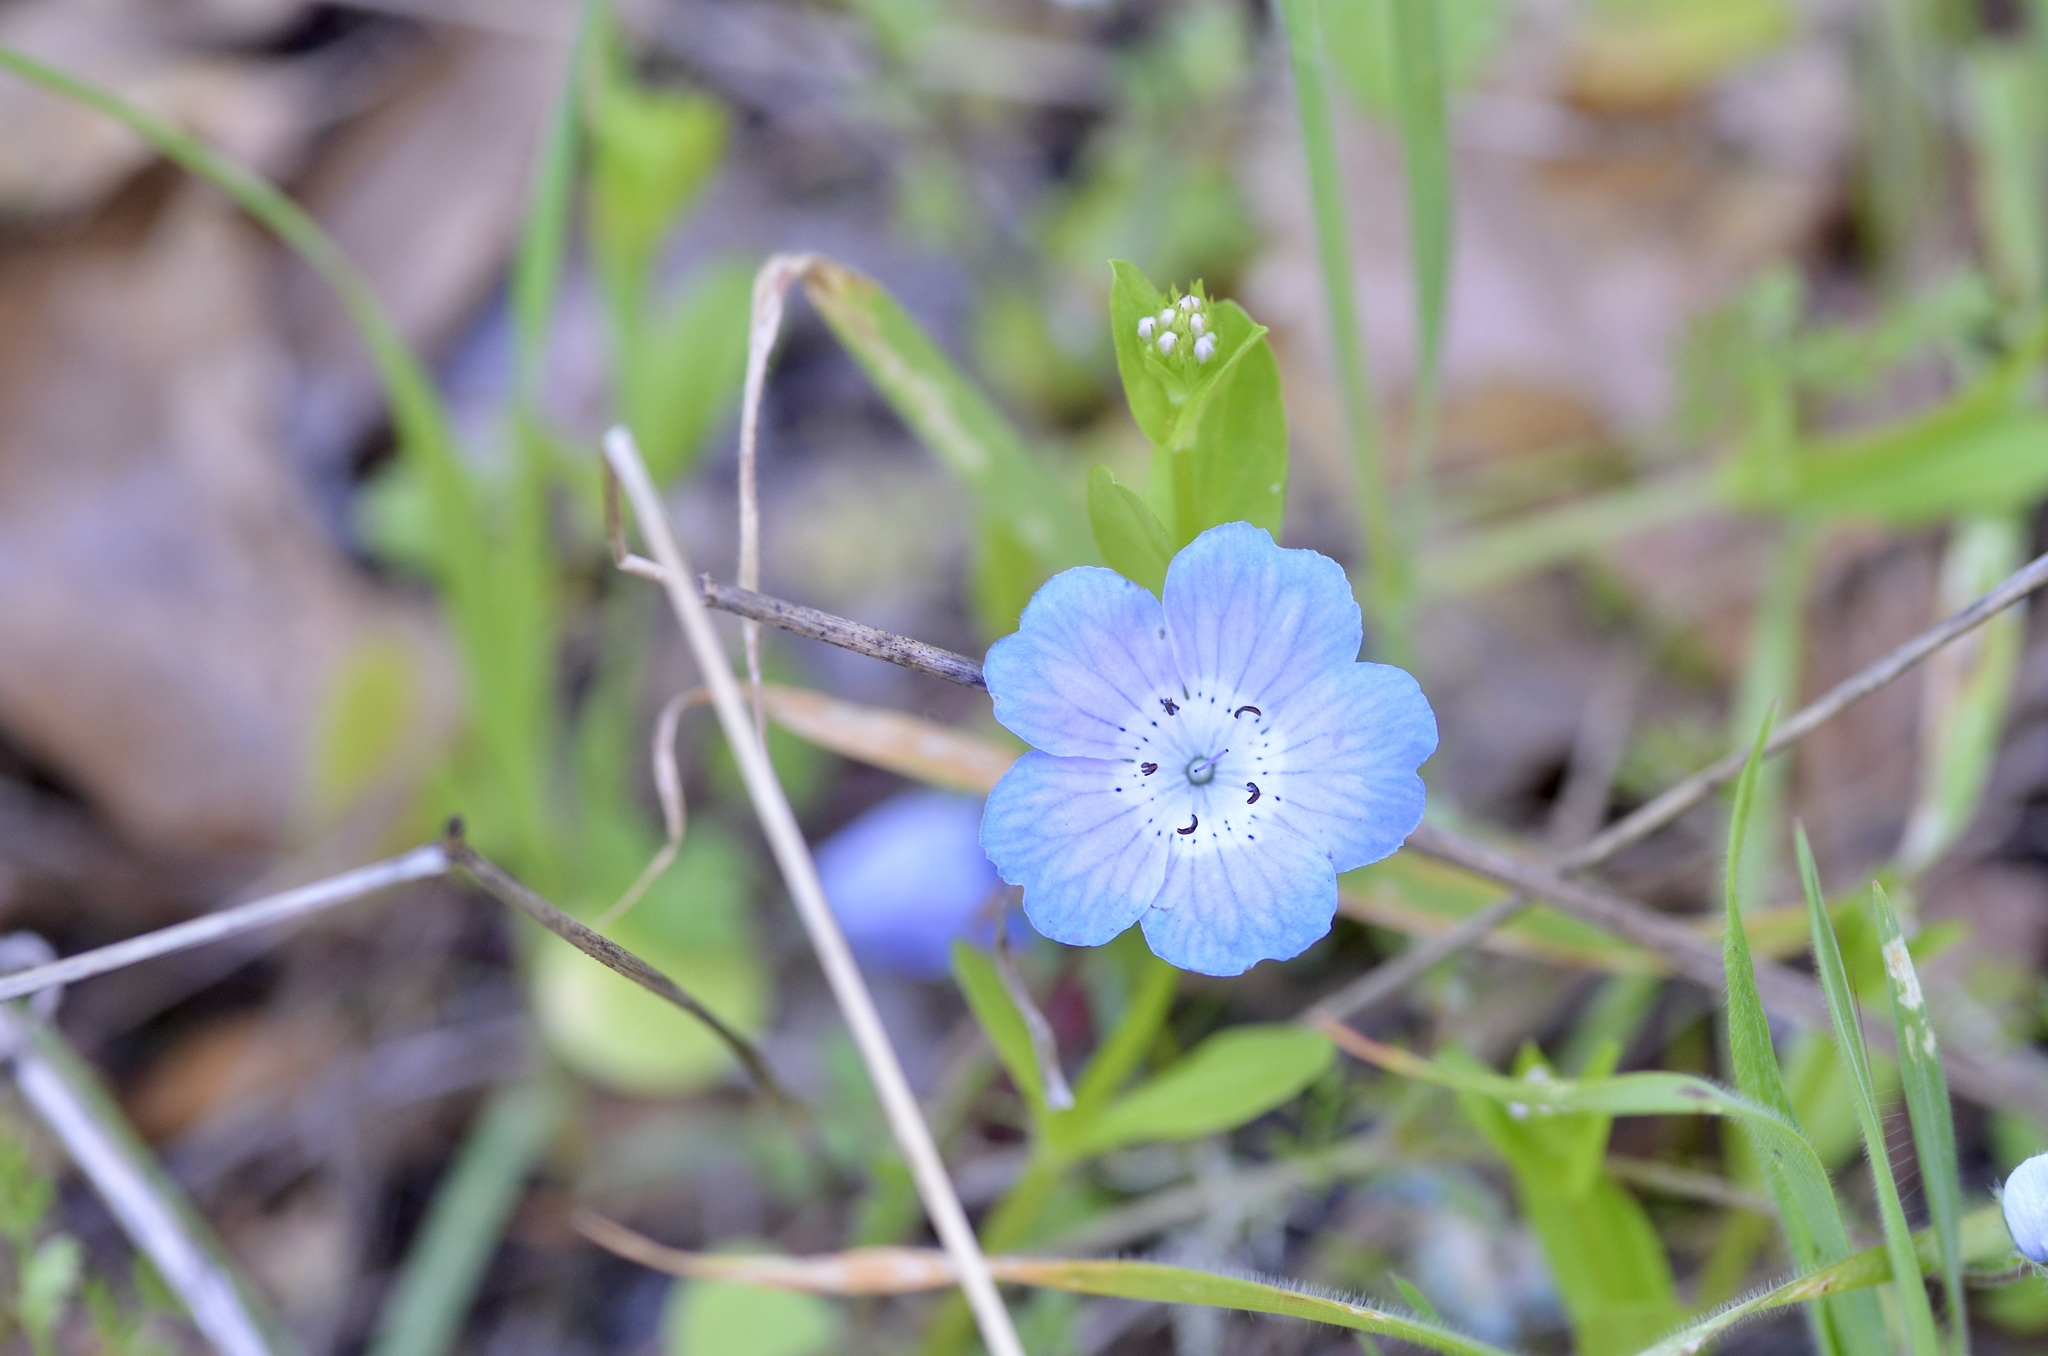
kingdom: Plantae
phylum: Tracheophyta
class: Magnoliopsida
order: Boraginales
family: Hydrophyllaceae
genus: Nemophila
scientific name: Nemophila menziesii
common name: Baby's-blue-eyes
